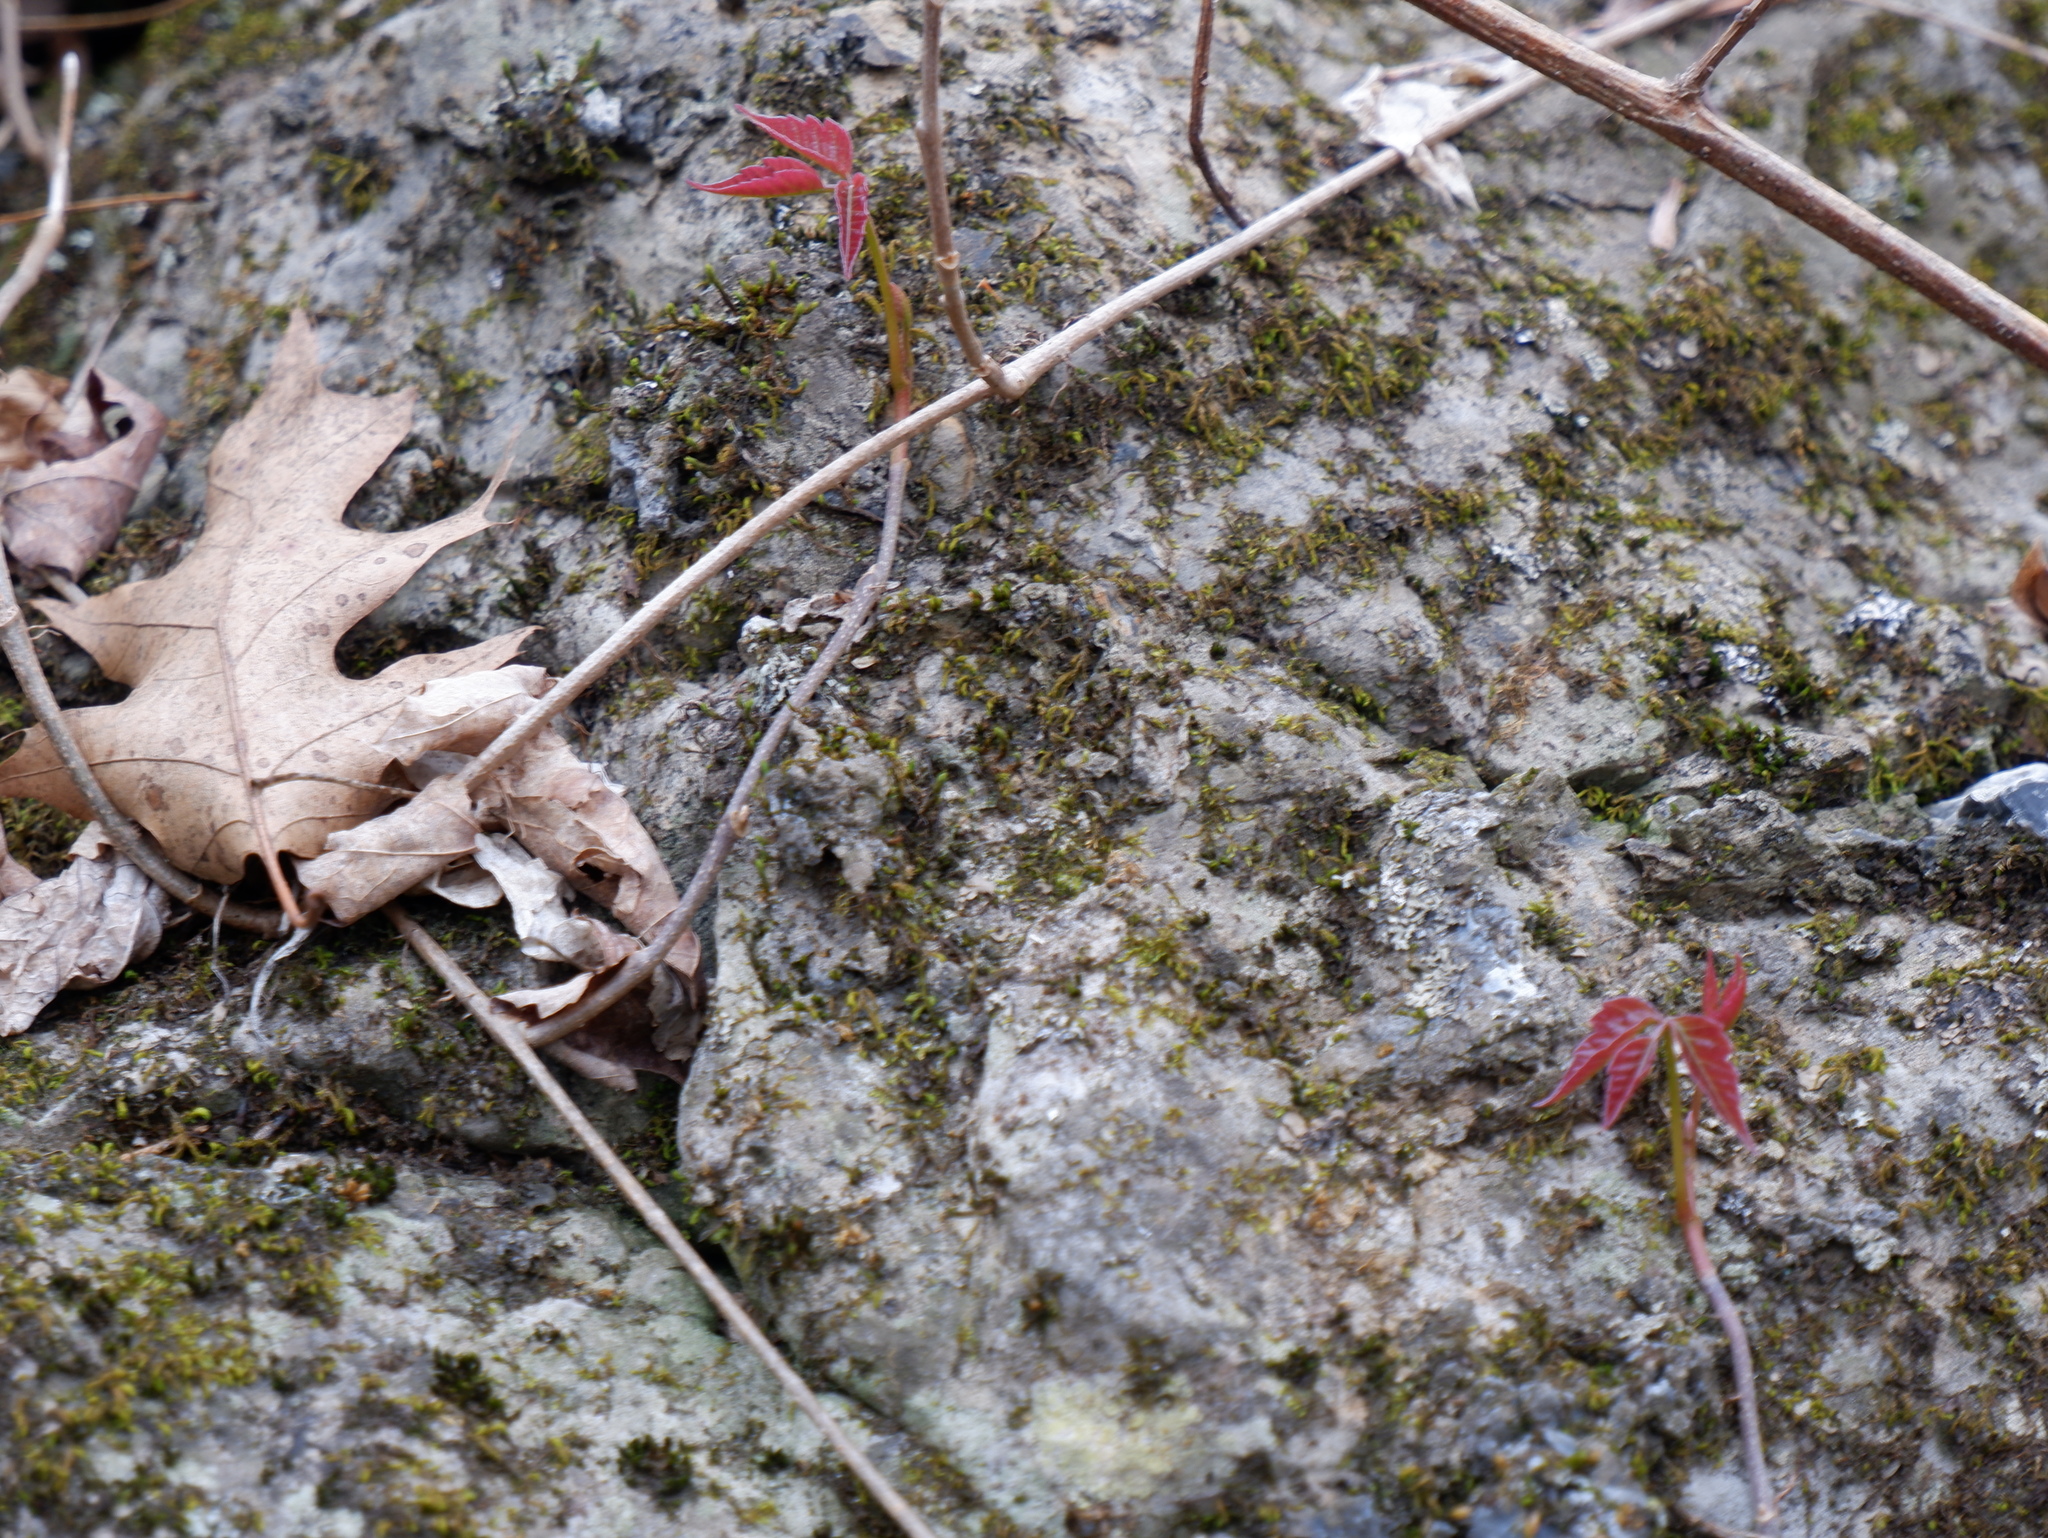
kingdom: Plantae
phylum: Tracheophyta
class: Magnoliopsida
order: Sapindales
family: Anacardiaceae
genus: Toxicodendron
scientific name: Toxicodendron radicans
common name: Poison ivy
